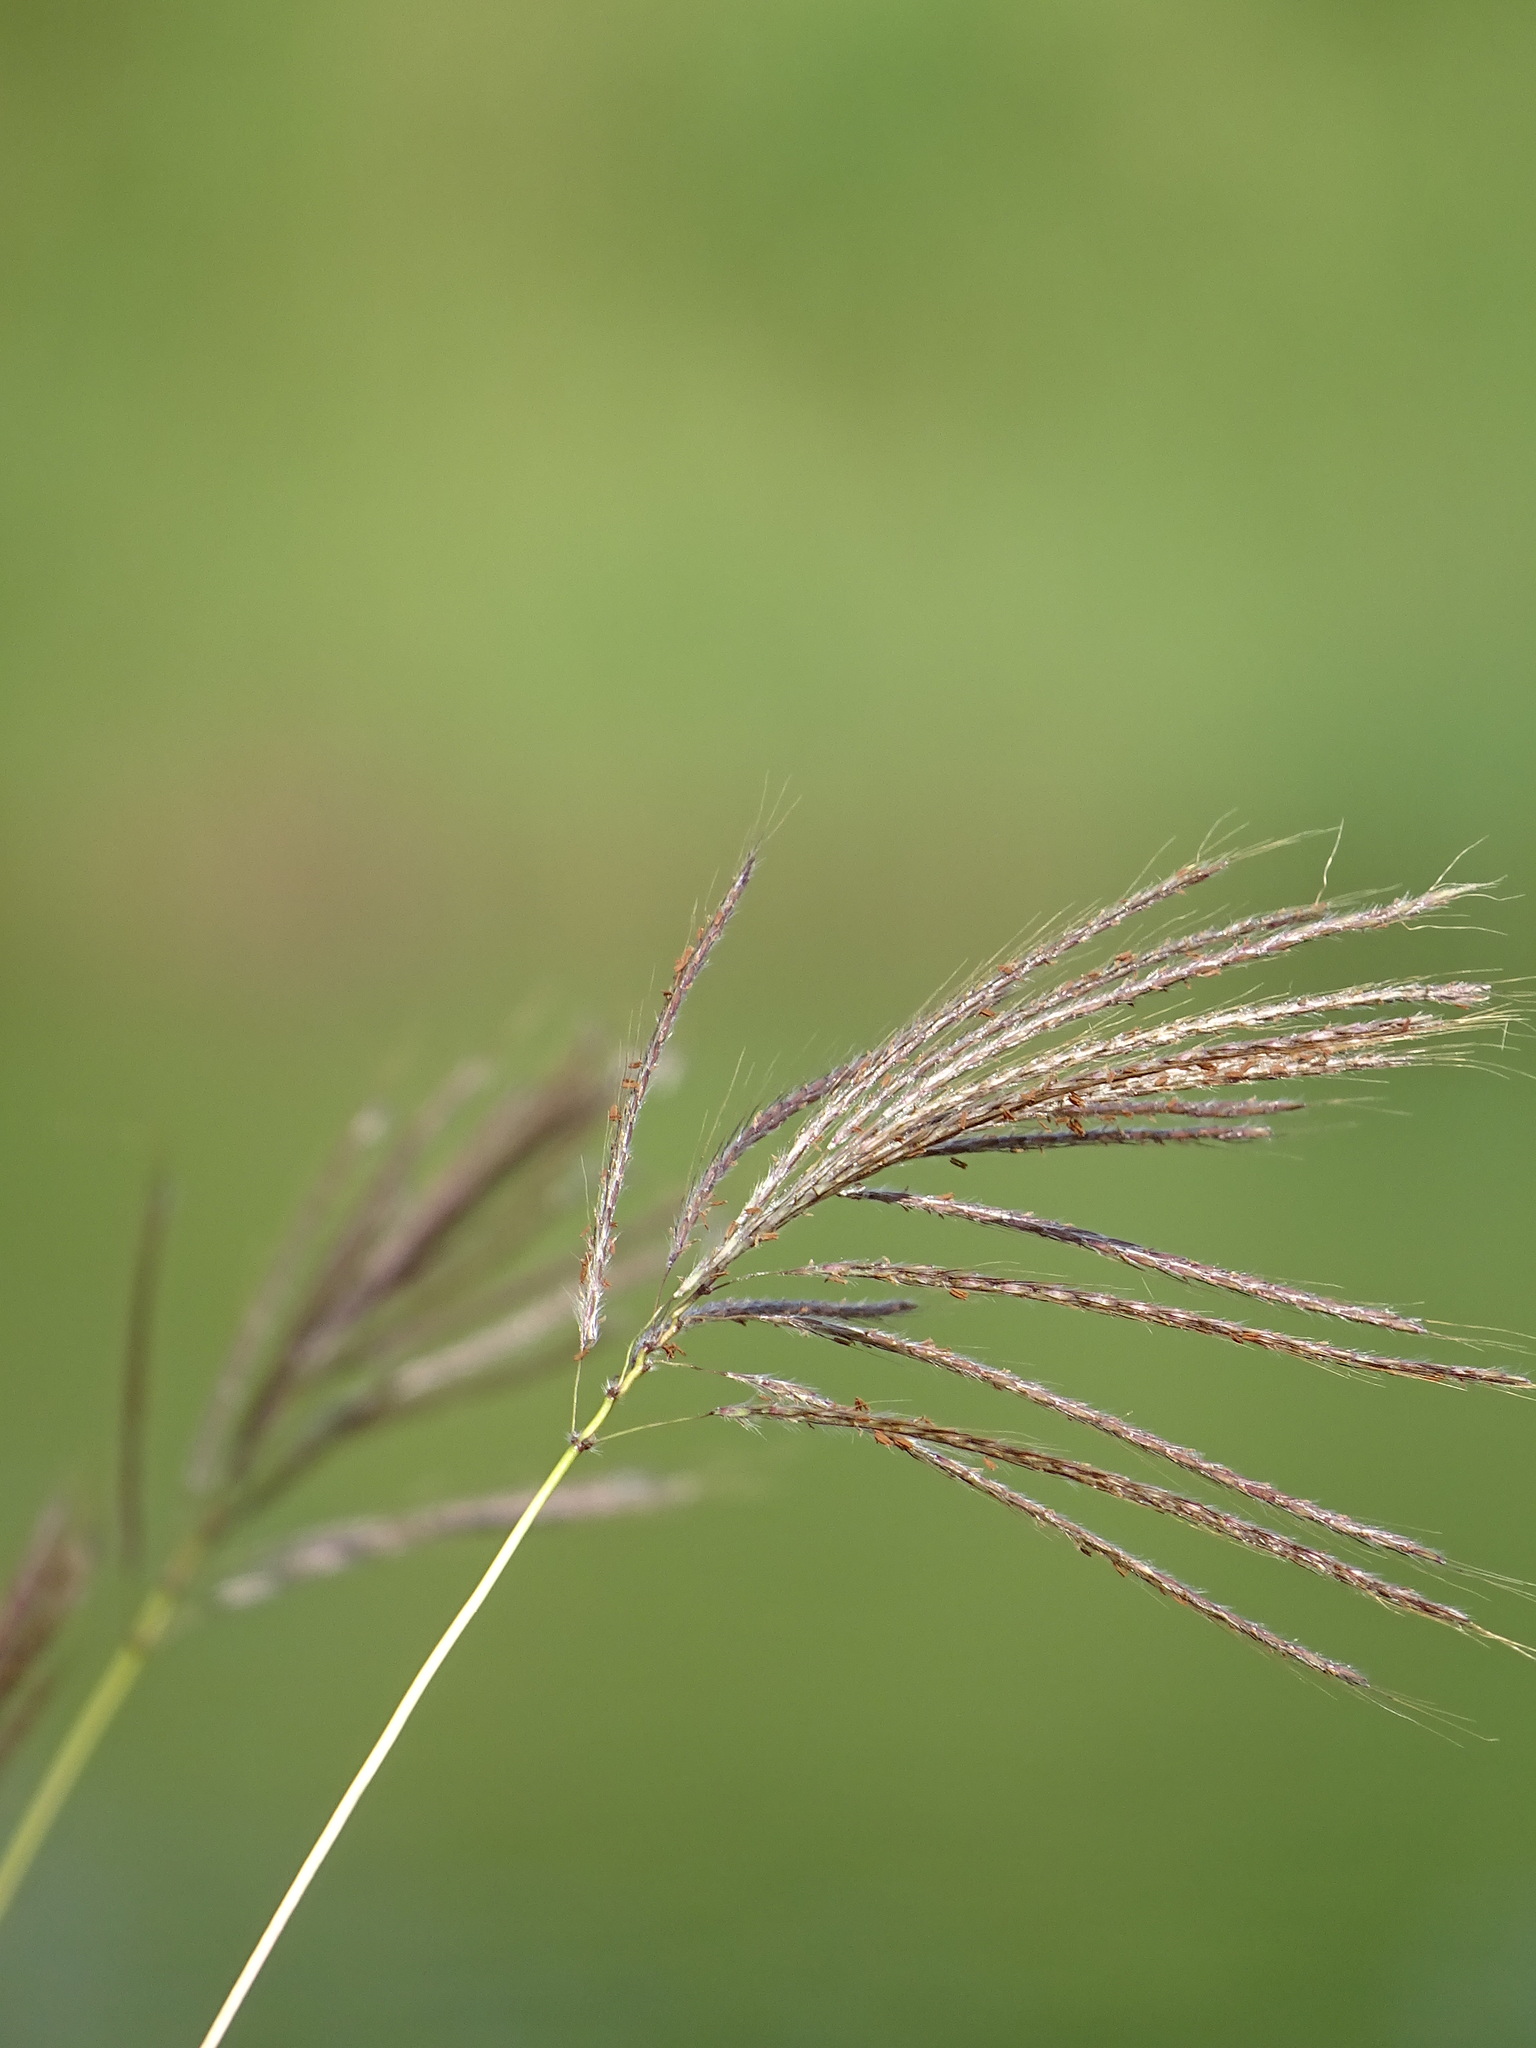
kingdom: Plantae
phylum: Tracheophyta
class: Liliopsida
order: Poales
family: Poaceae
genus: Bothriochloa
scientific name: Bothriochloa bladhii
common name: Caucasian bluestem
